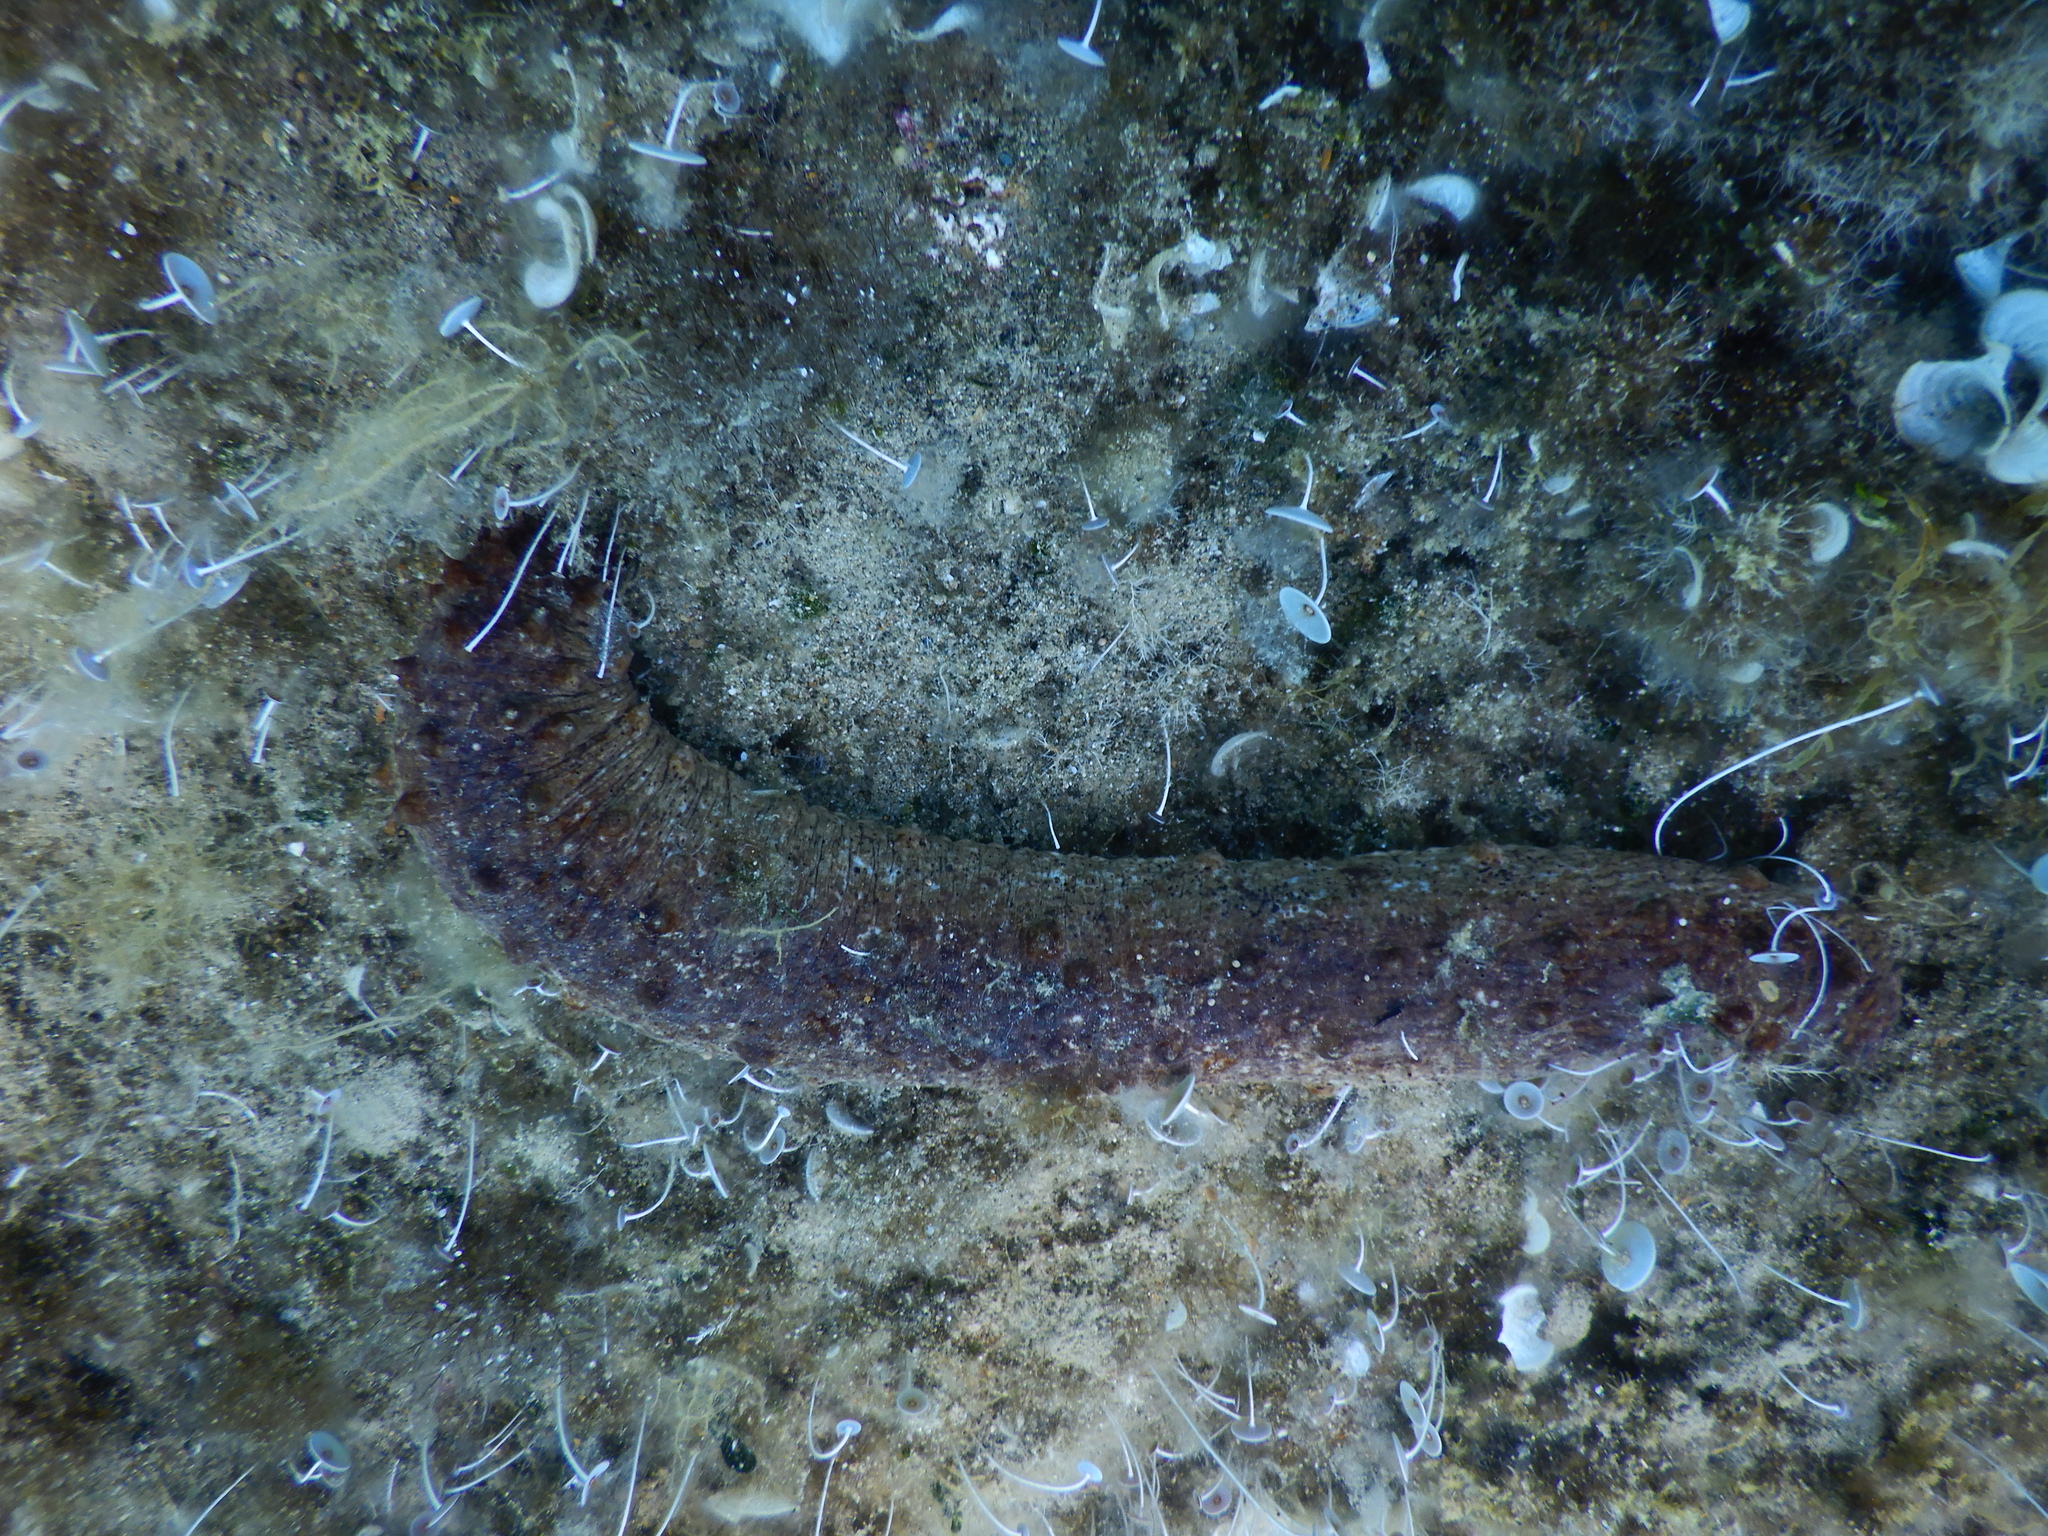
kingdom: Animalia
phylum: Echinodermata
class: Holothuroidea
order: Holothuriida
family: Holothuriidae
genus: Holothuria
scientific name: Holothuria tubulosa
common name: Cotton-spinner
